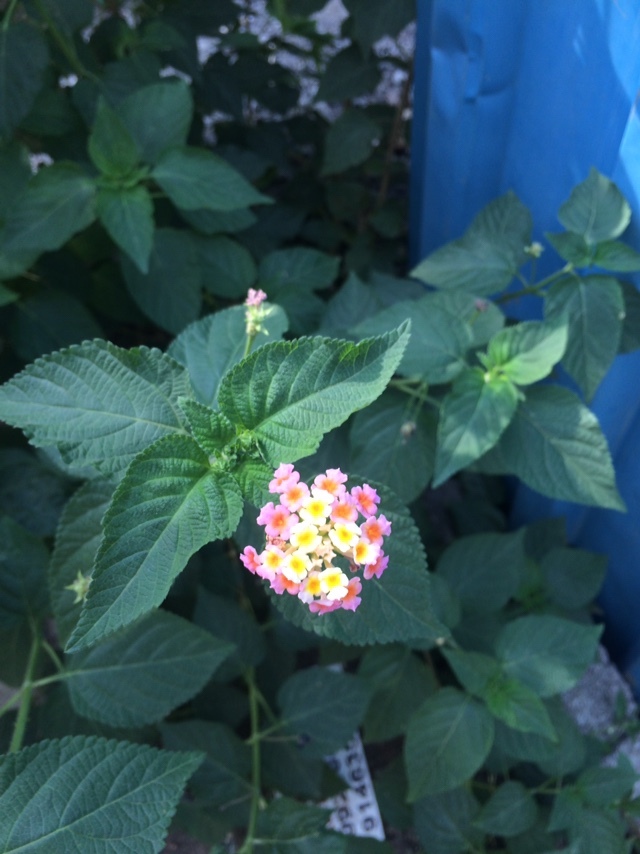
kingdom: Plantae
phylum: Tracheophyta
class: Magnoliopsida
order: Lamiales
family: Verbenaceae
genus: Lantana
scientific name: Lantana camara
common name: Lantana
